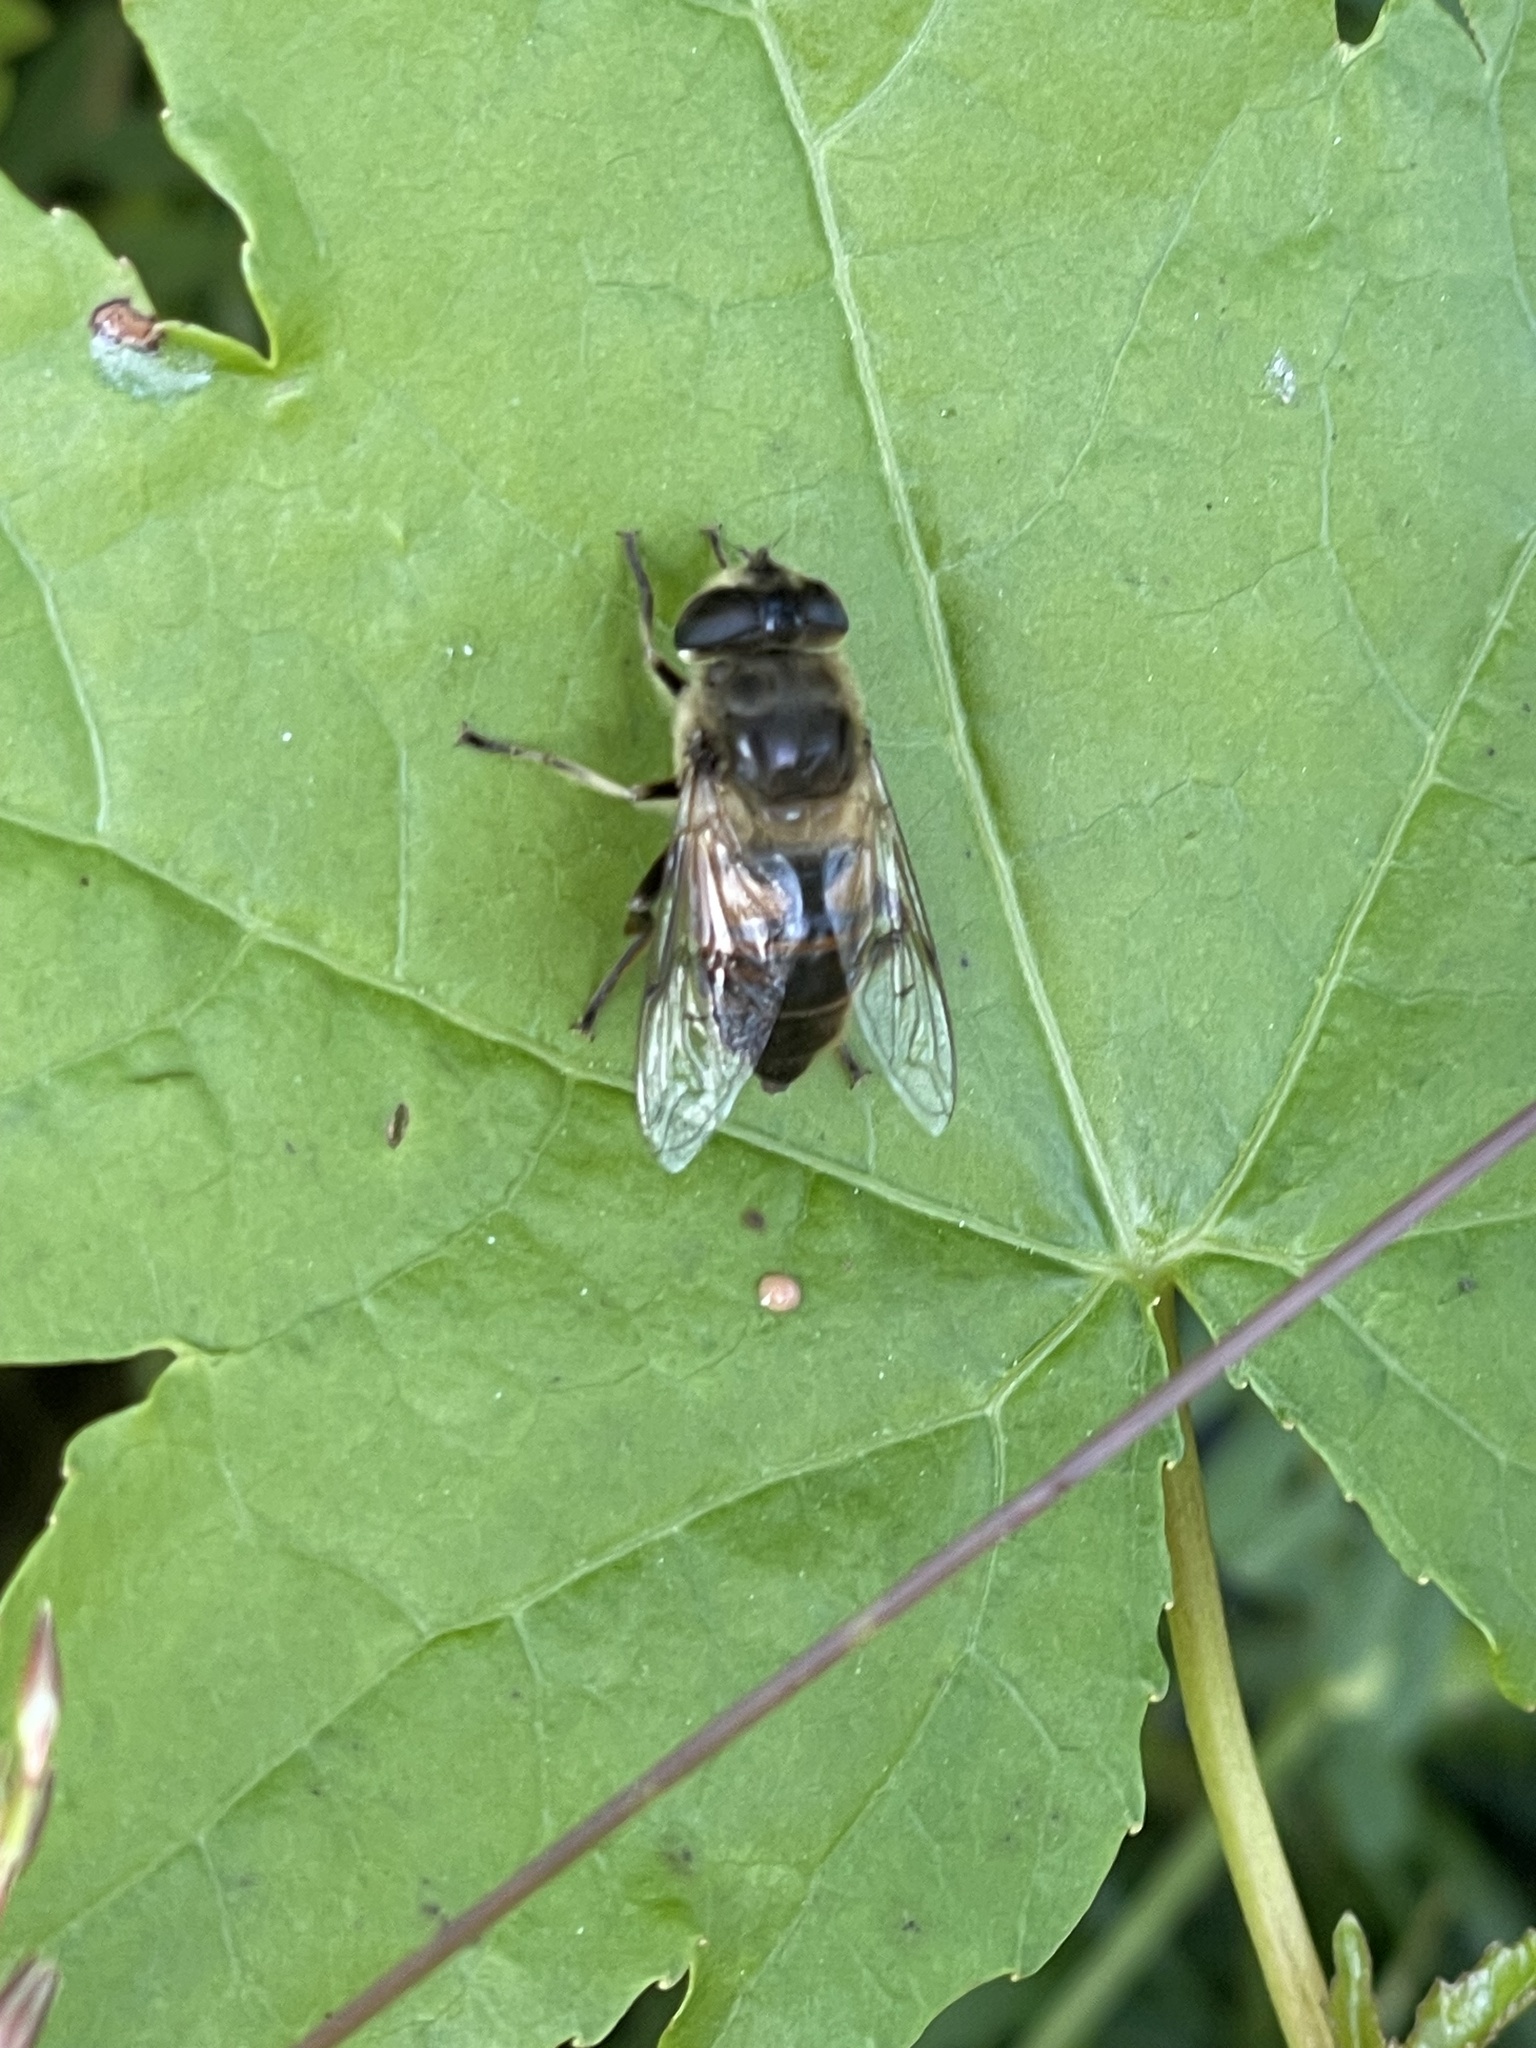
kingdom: Animalia
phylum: Arthropoda
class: Insecta
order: Diptera
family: Syrphidae
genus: Eristalis
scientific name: Eristalis tenax
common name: Drone fly
